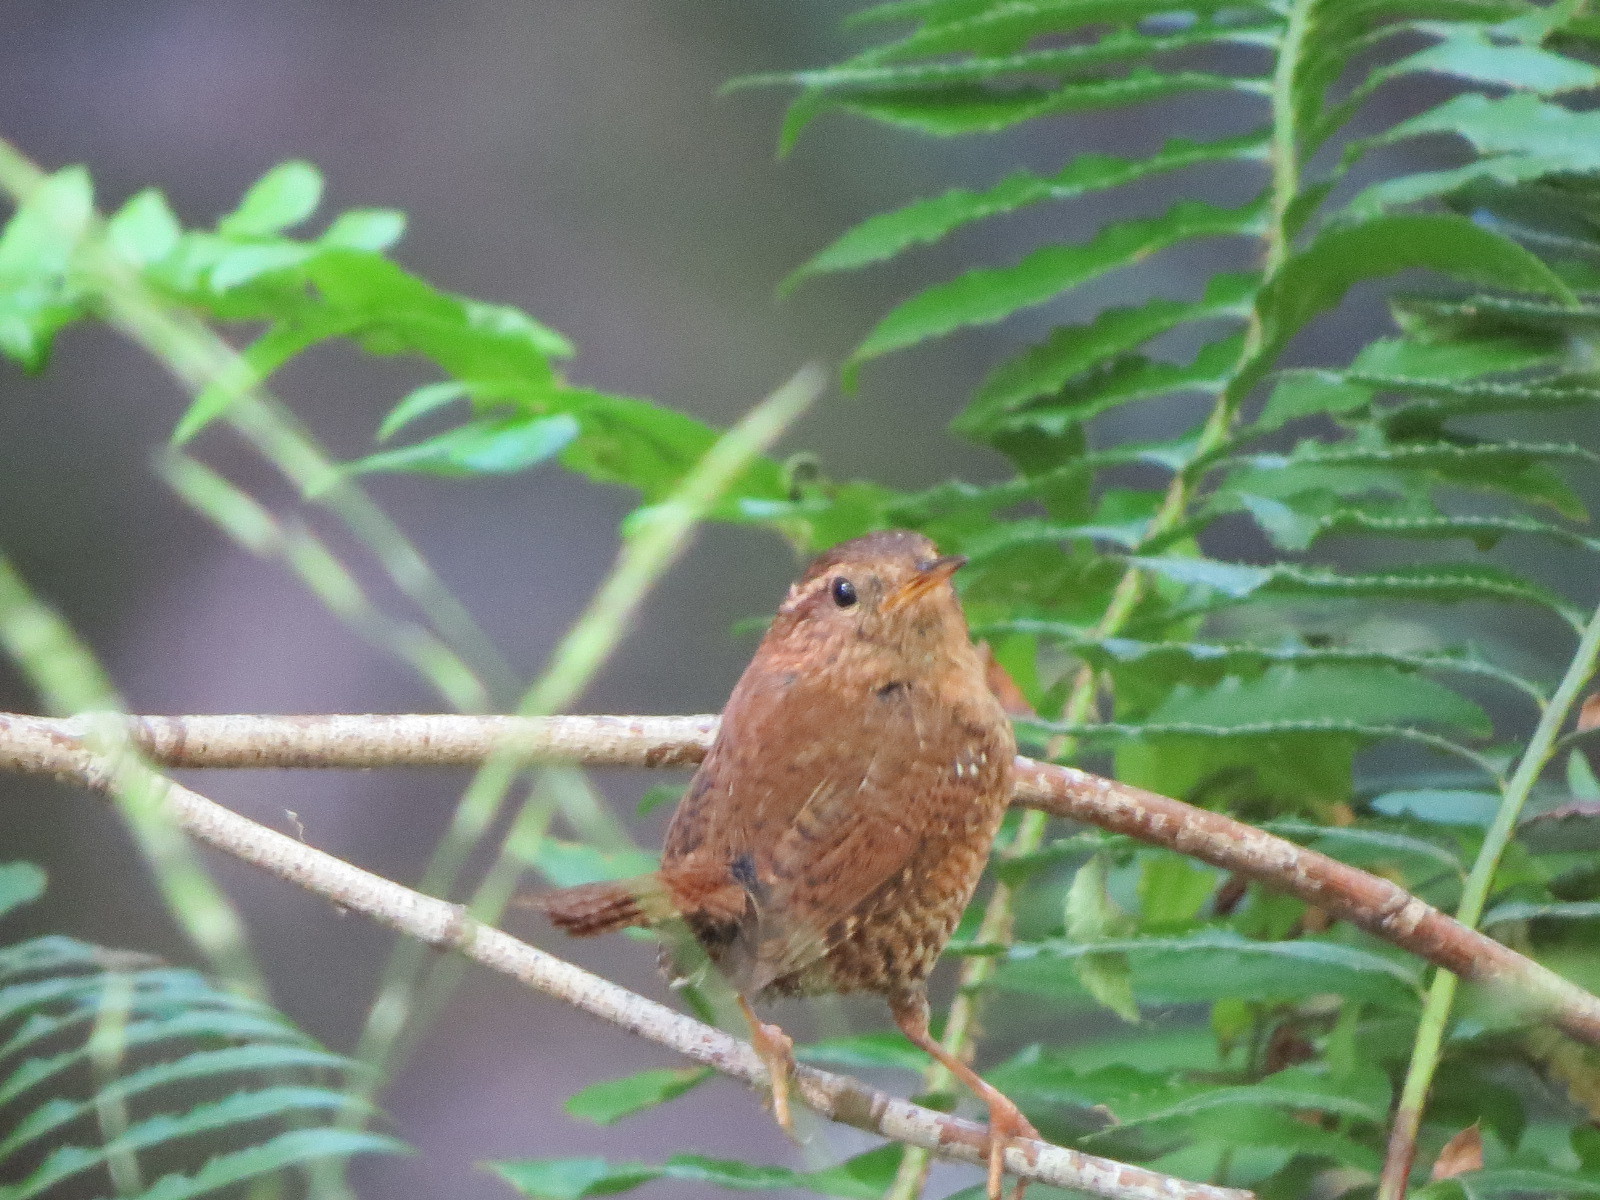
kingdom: Animalia
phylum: Chordata
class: Aves
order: Passeriformes
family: Troglodytidae
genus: Troglodytes
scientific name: Troglodytes pacificus
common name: Pacific wren
